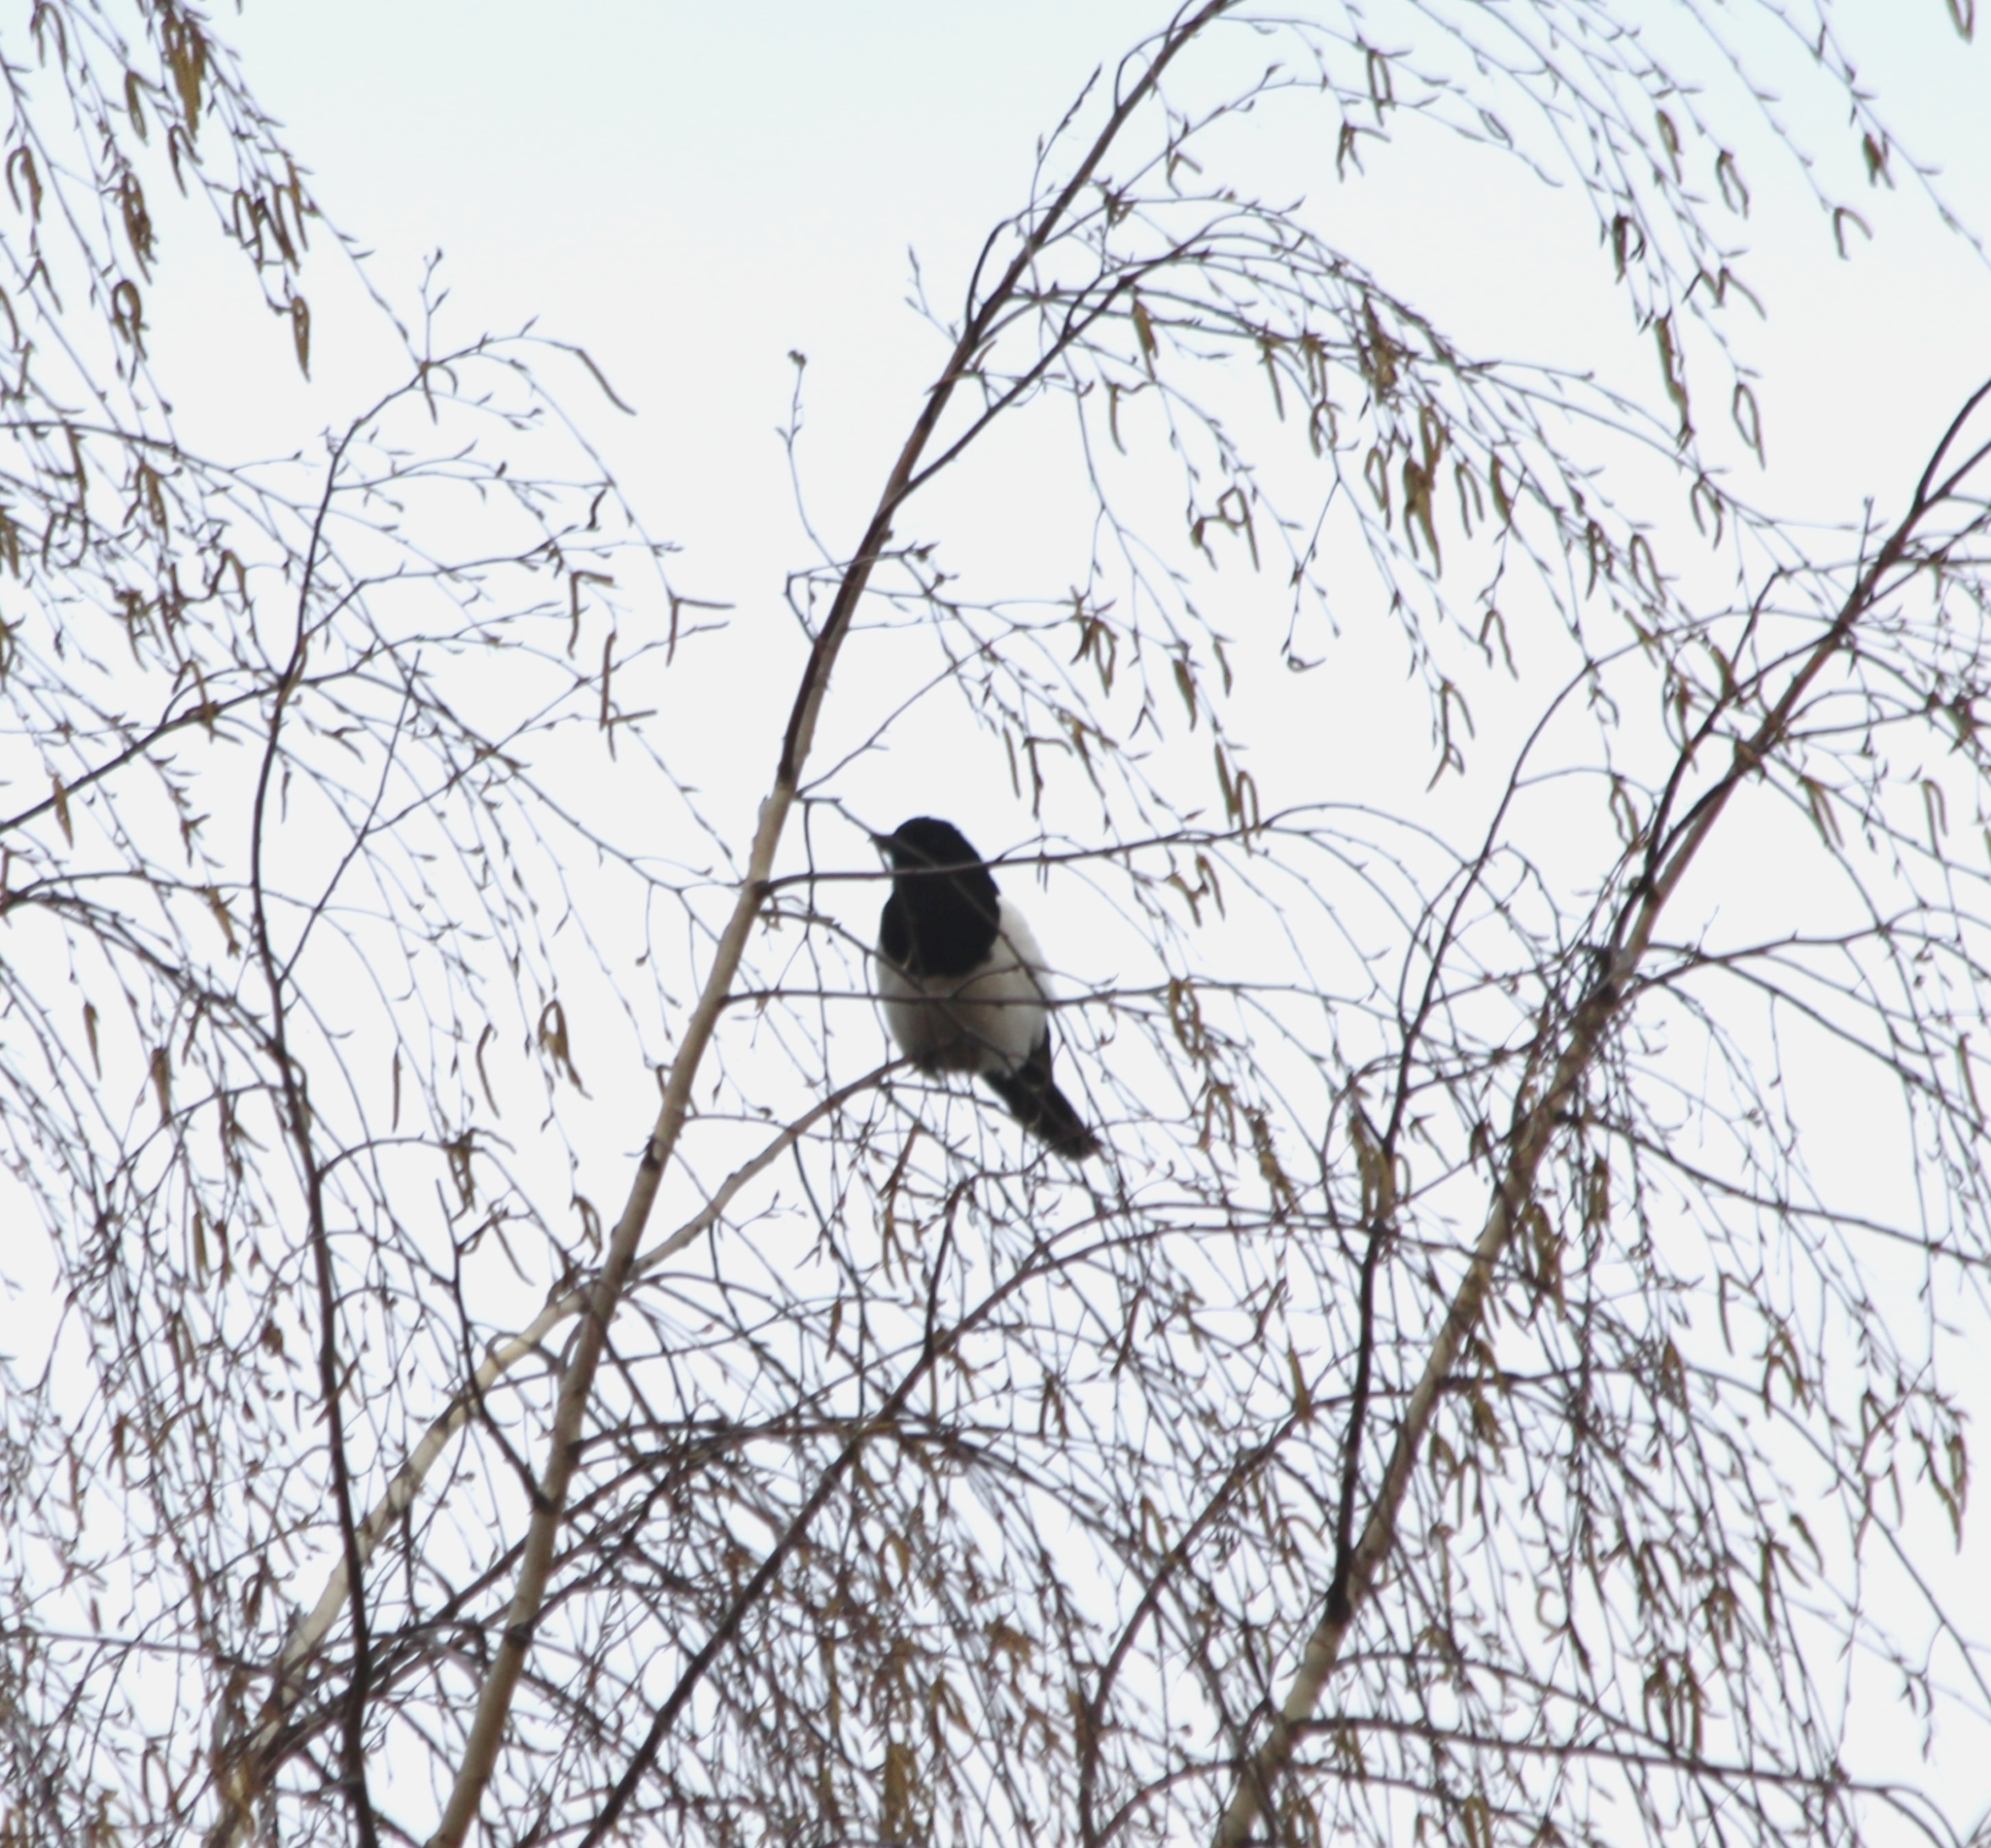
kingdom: Animalia
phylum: Chordata
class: Aves
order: Passeriformes
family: Corvidae
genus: Pica
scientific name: Pica pica
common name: Eurasian magpie
